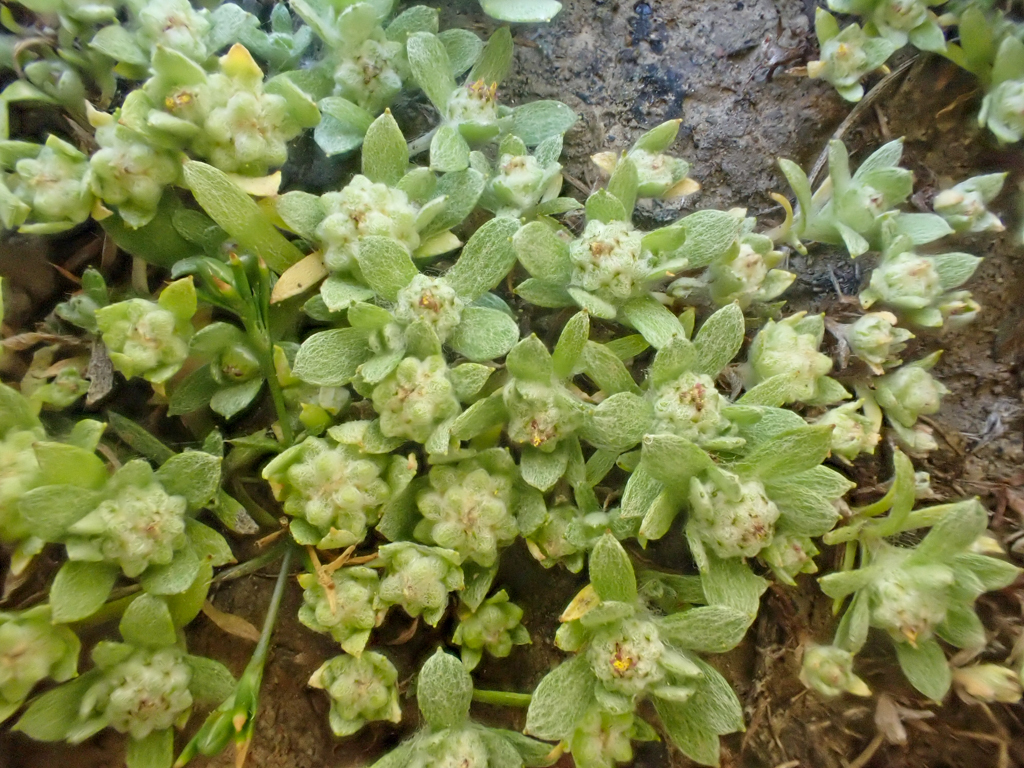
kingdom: Plantae
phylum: Tracheophyta
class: Magnoliopsida
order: Asterales
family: Asteraceae
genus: Psilocarphus
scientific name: Psilocarphus tenellus
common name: Slender woolly-marbles
